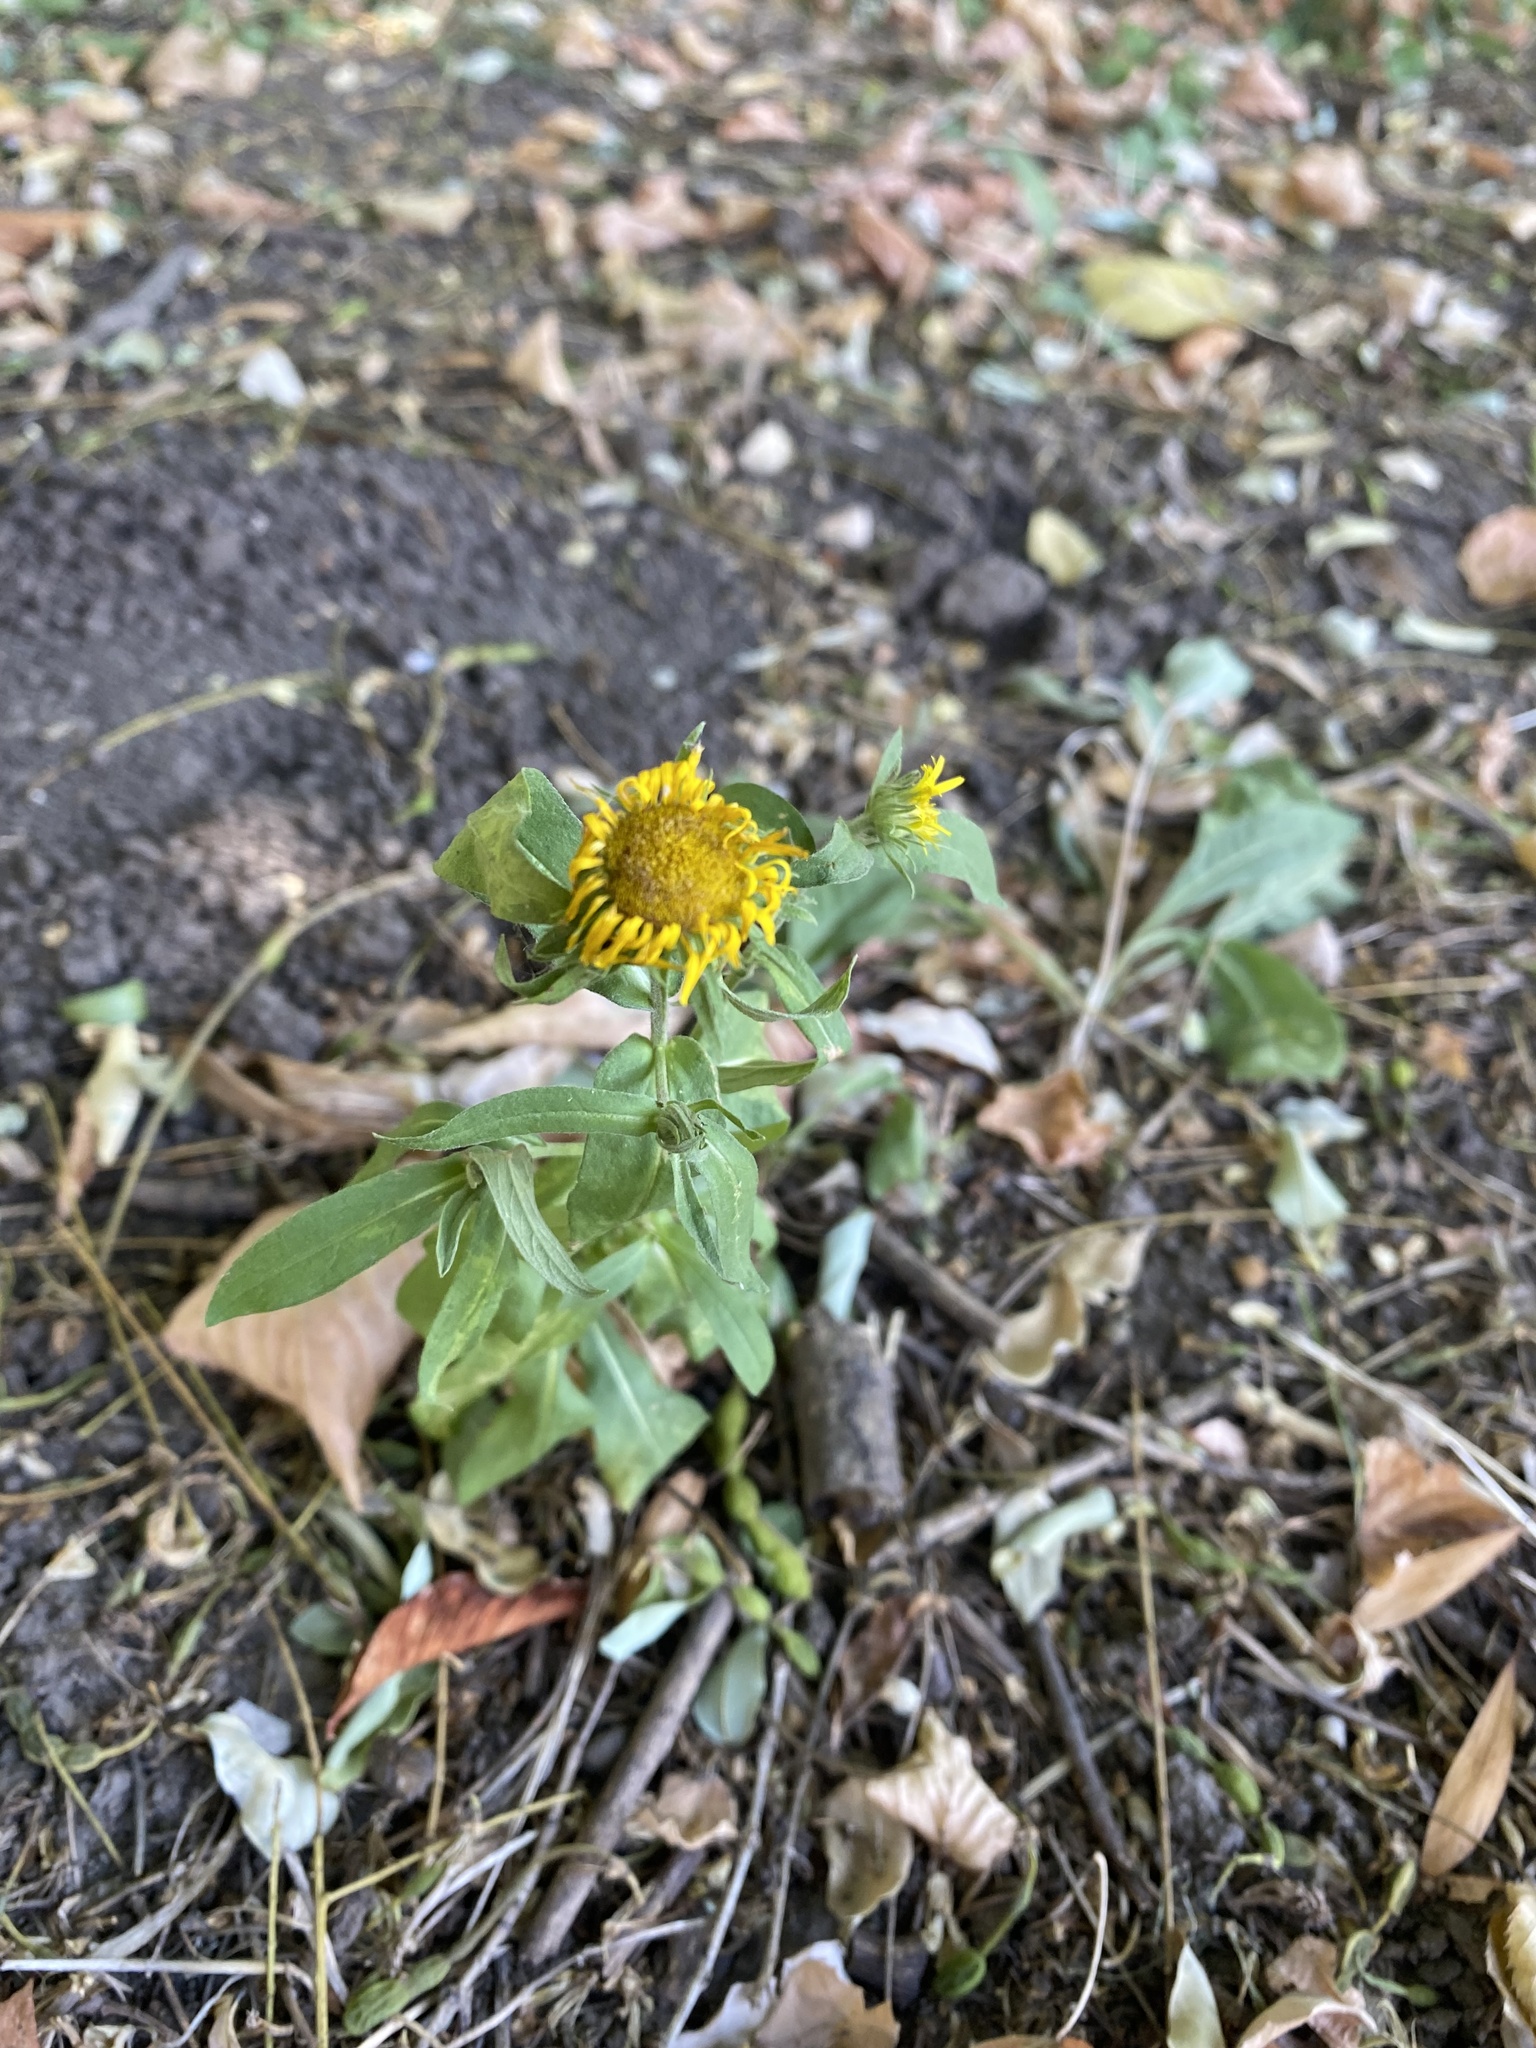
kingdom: Plantae
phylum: Tracheophyta
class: Magnoliopsida
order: Asterales
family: Asteraceae
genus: Pentanema
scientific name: Pentanema britannicum
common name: British elecampane
